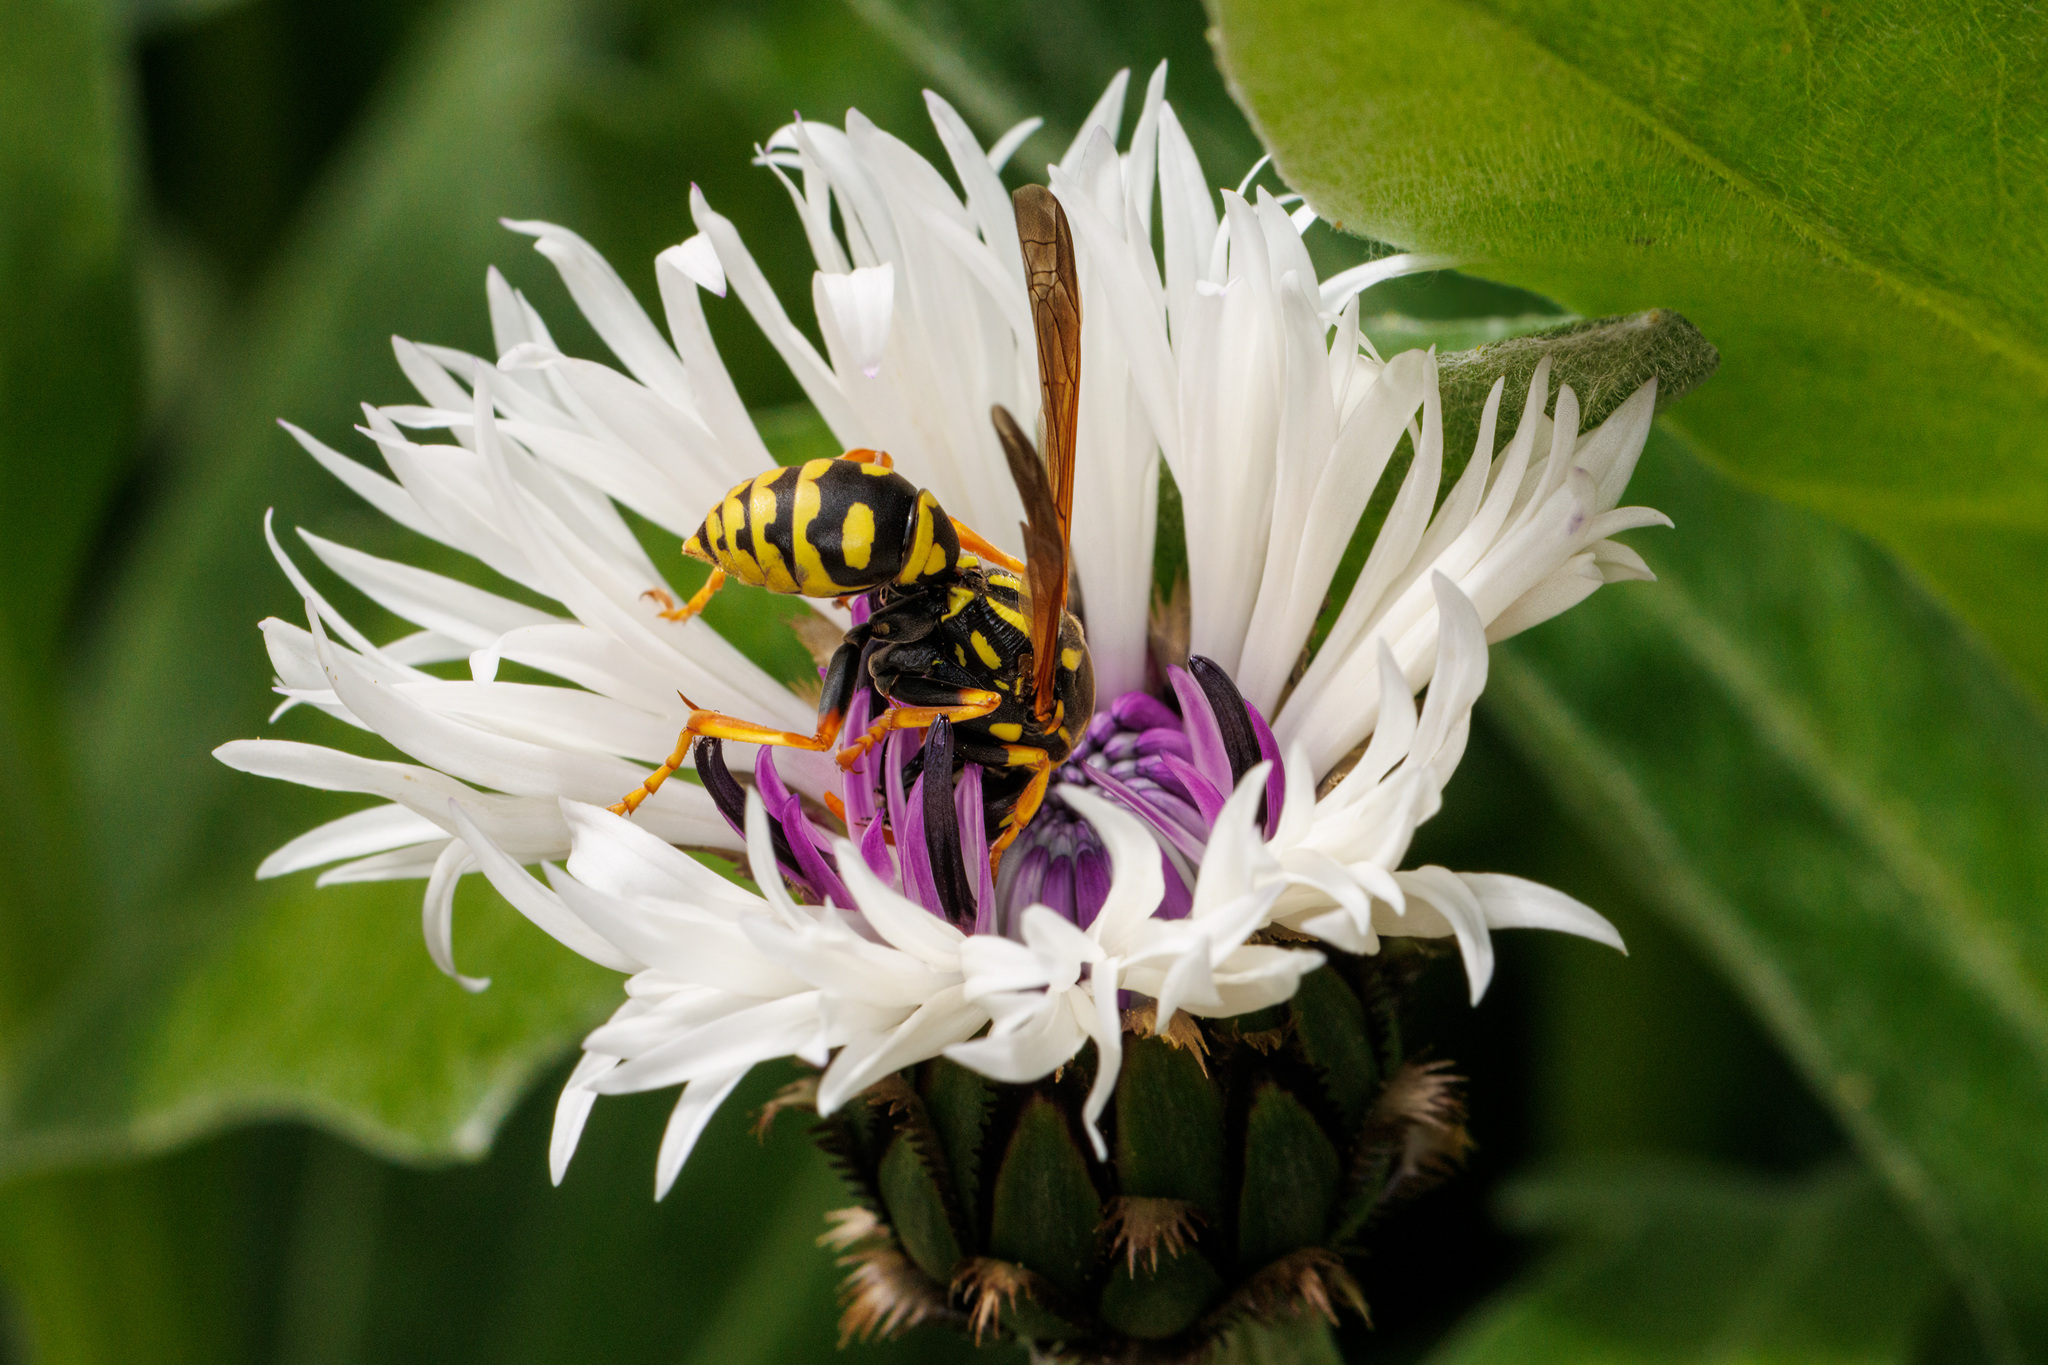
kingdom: Animalia
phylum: Arthropoda
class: Insecta
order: Hymenoptera
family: Eumenidae
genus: Polistes
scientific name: Polistes dominula
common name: Paper wasp
